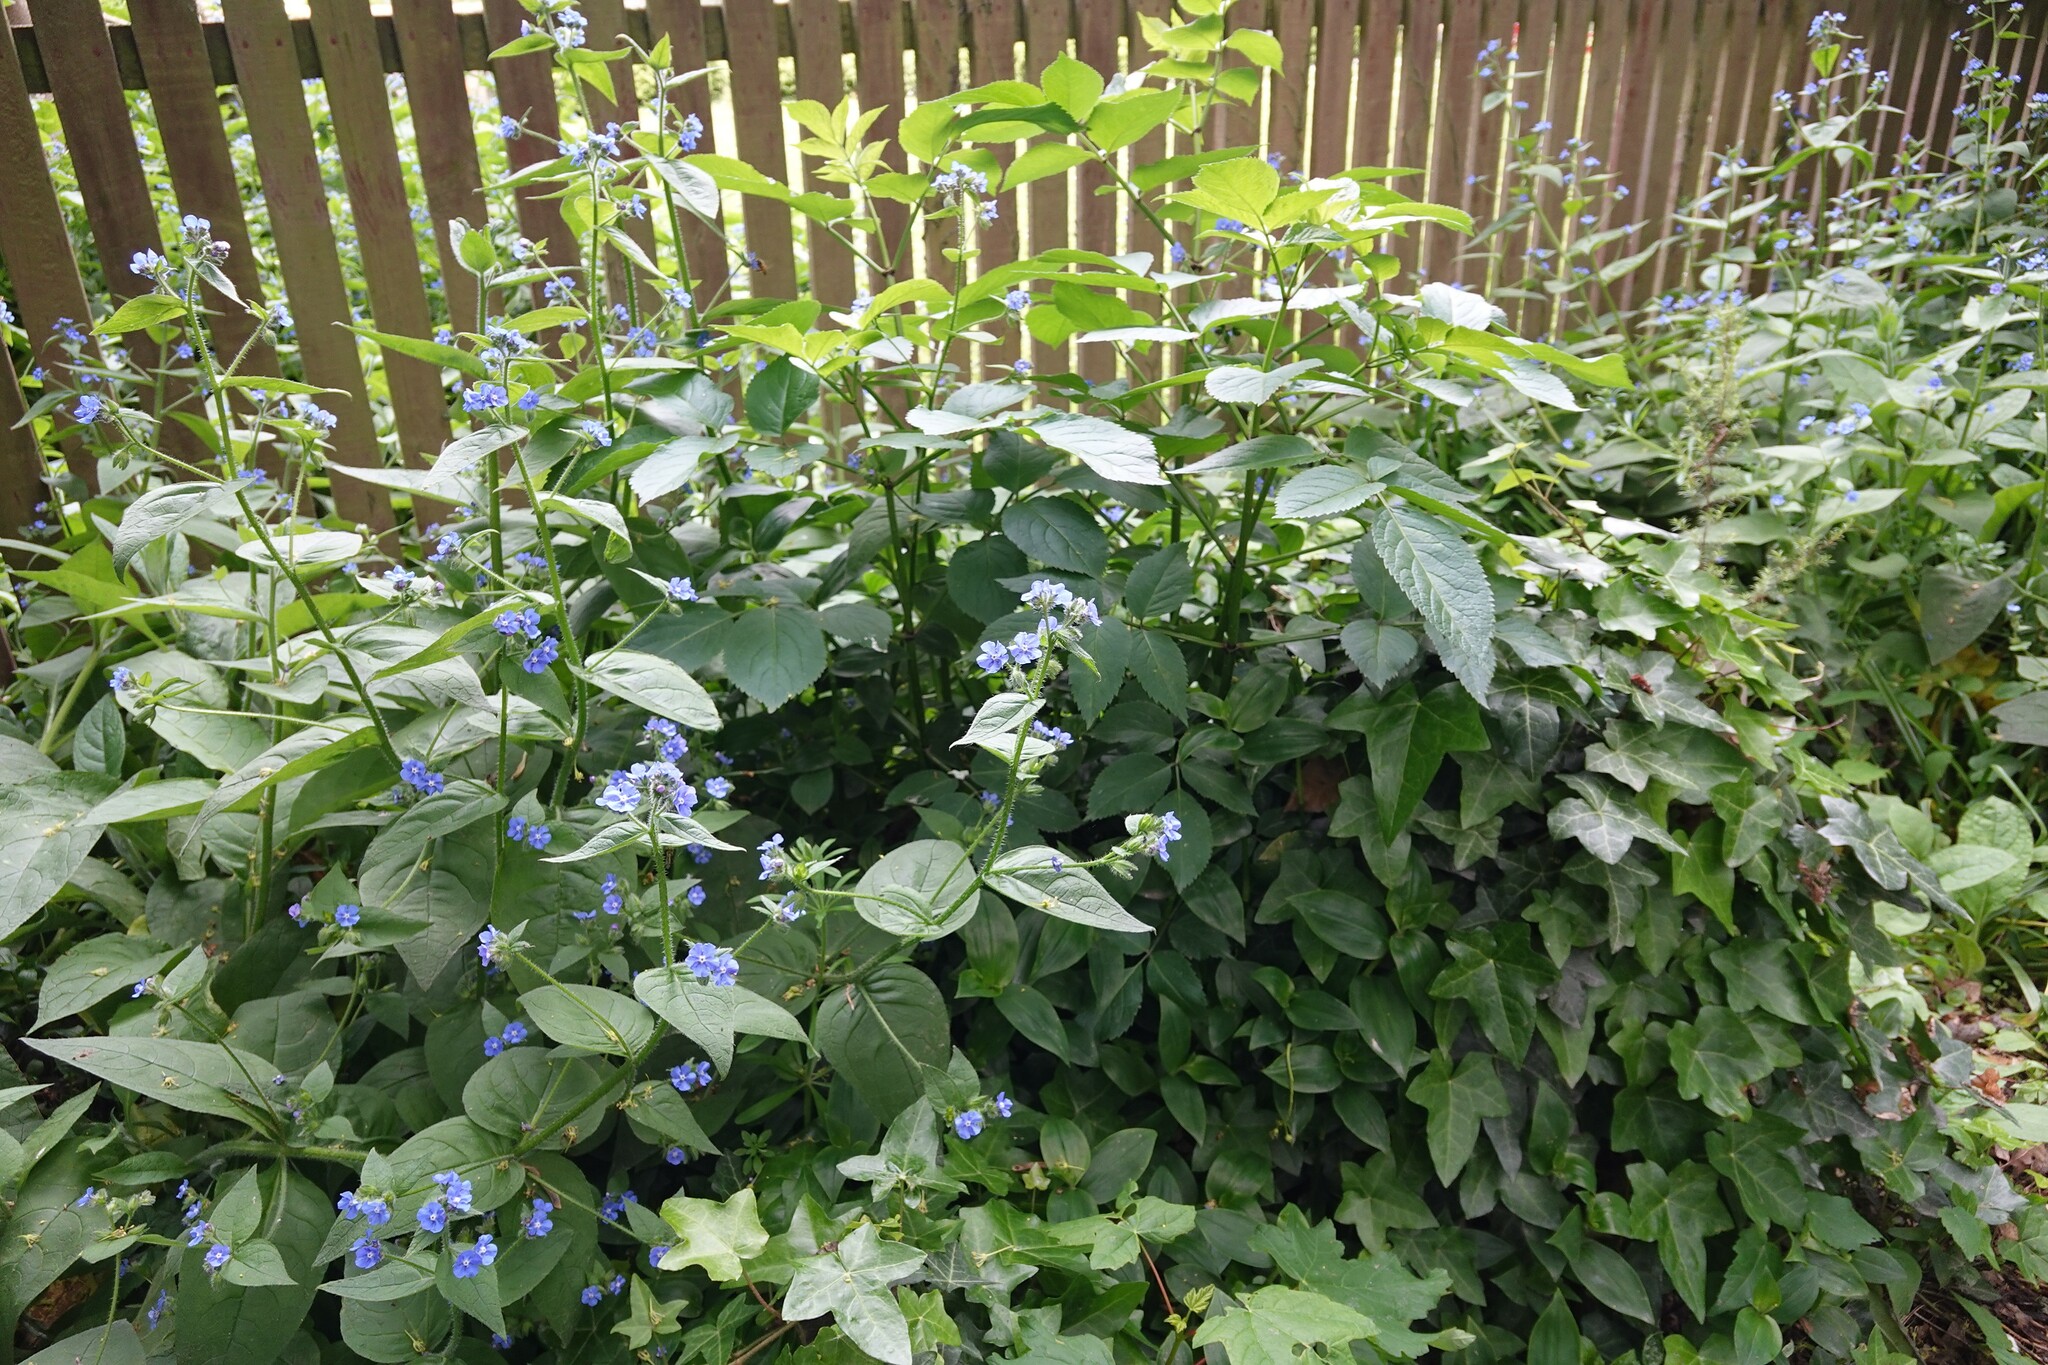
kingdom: Plantae
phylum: Tracheophyta
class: Magnoliopsida
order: Boraginales
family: Boraginaceae
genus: Pentaglottis
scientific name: Pentaglottis sempervirens
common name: Green alkanet
